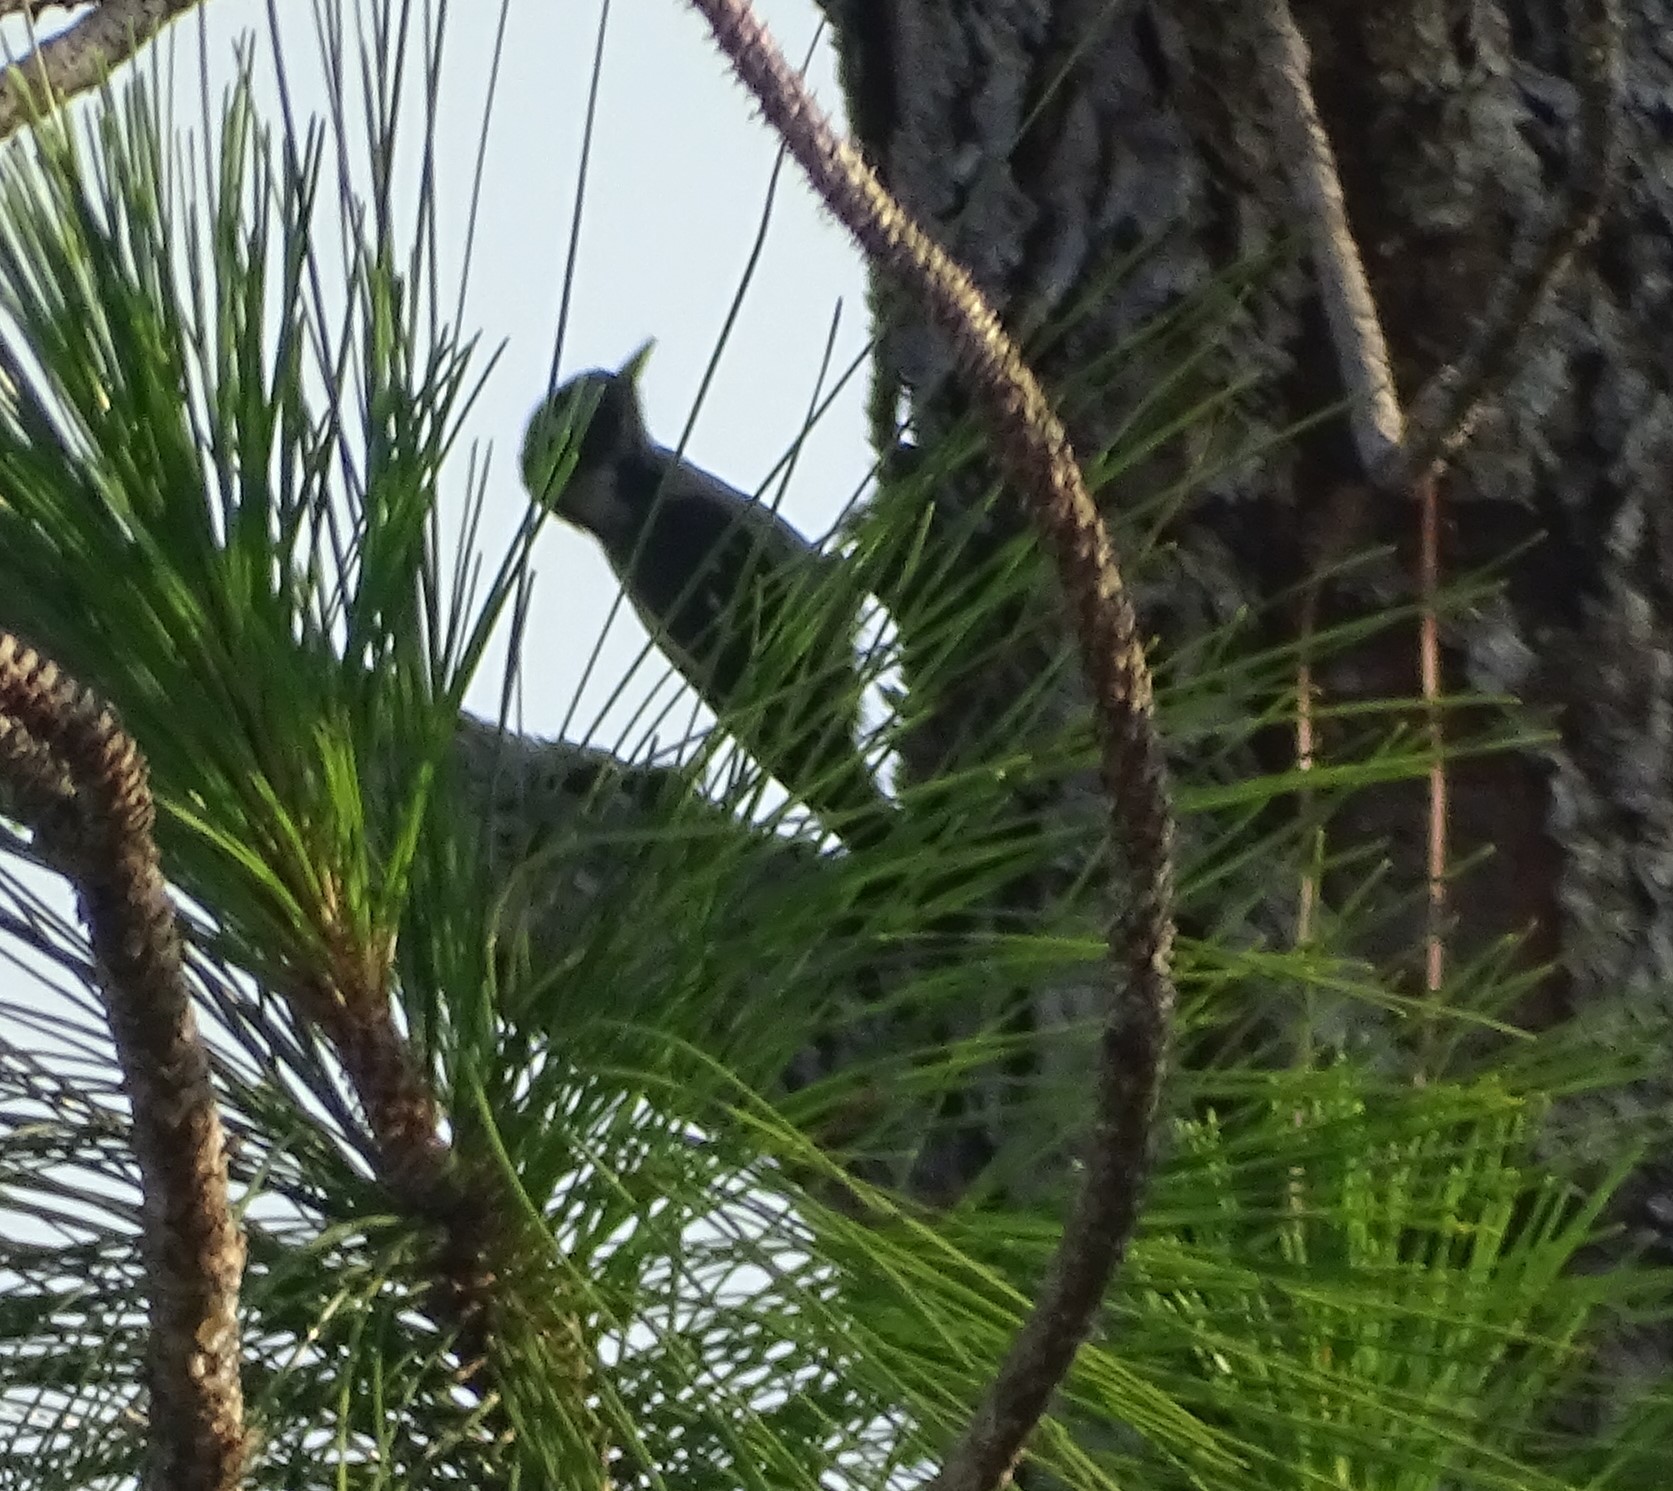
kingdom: Animalia
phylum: Chordata
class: Aves
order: Piciformes
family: Picidae
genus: Dryobates
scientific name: Dryobates pubescens
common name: Downy woodpecker
